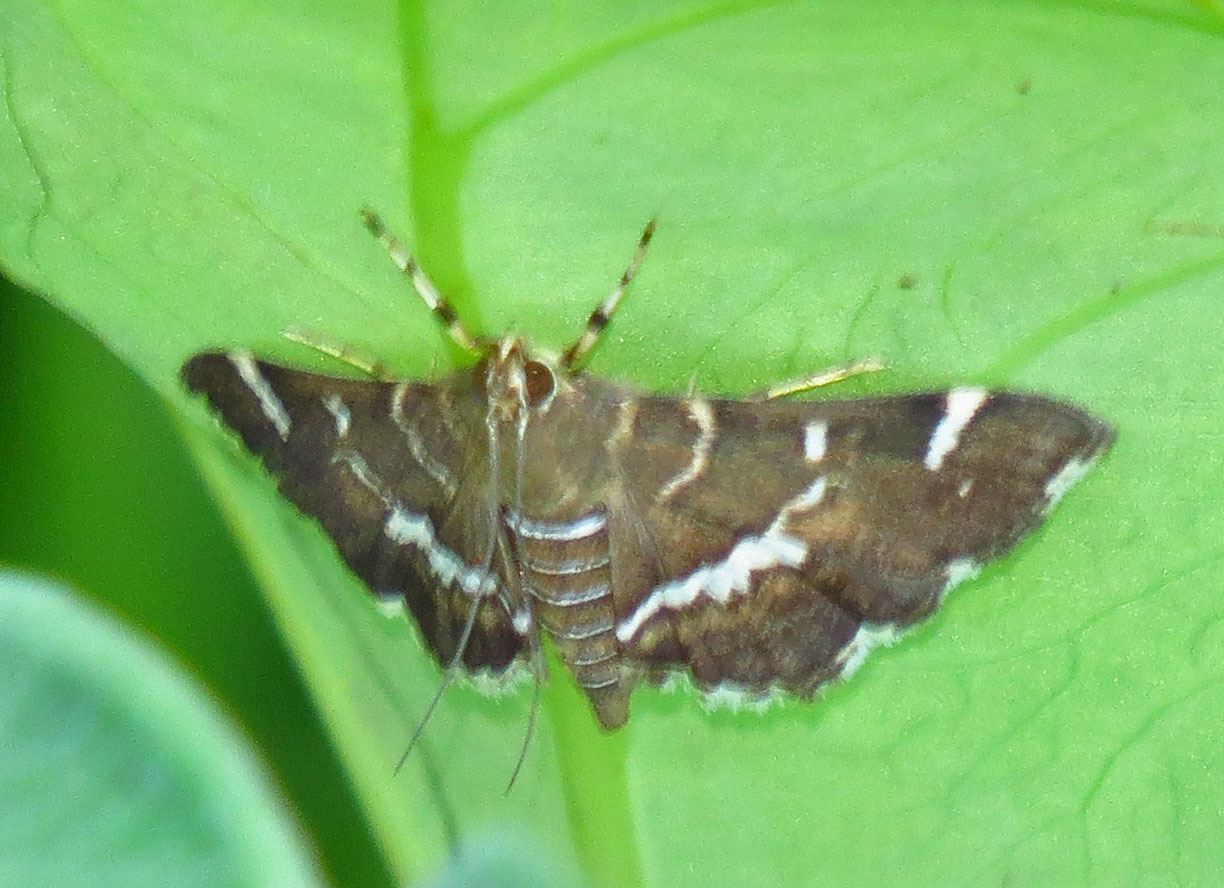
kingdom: Animalia
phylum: Arthropoda
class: Insecta
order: Lepidoptera
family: Crambidae
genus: Hymenia
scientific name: Hymenia perspectalis
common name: Spotted beet webworm
